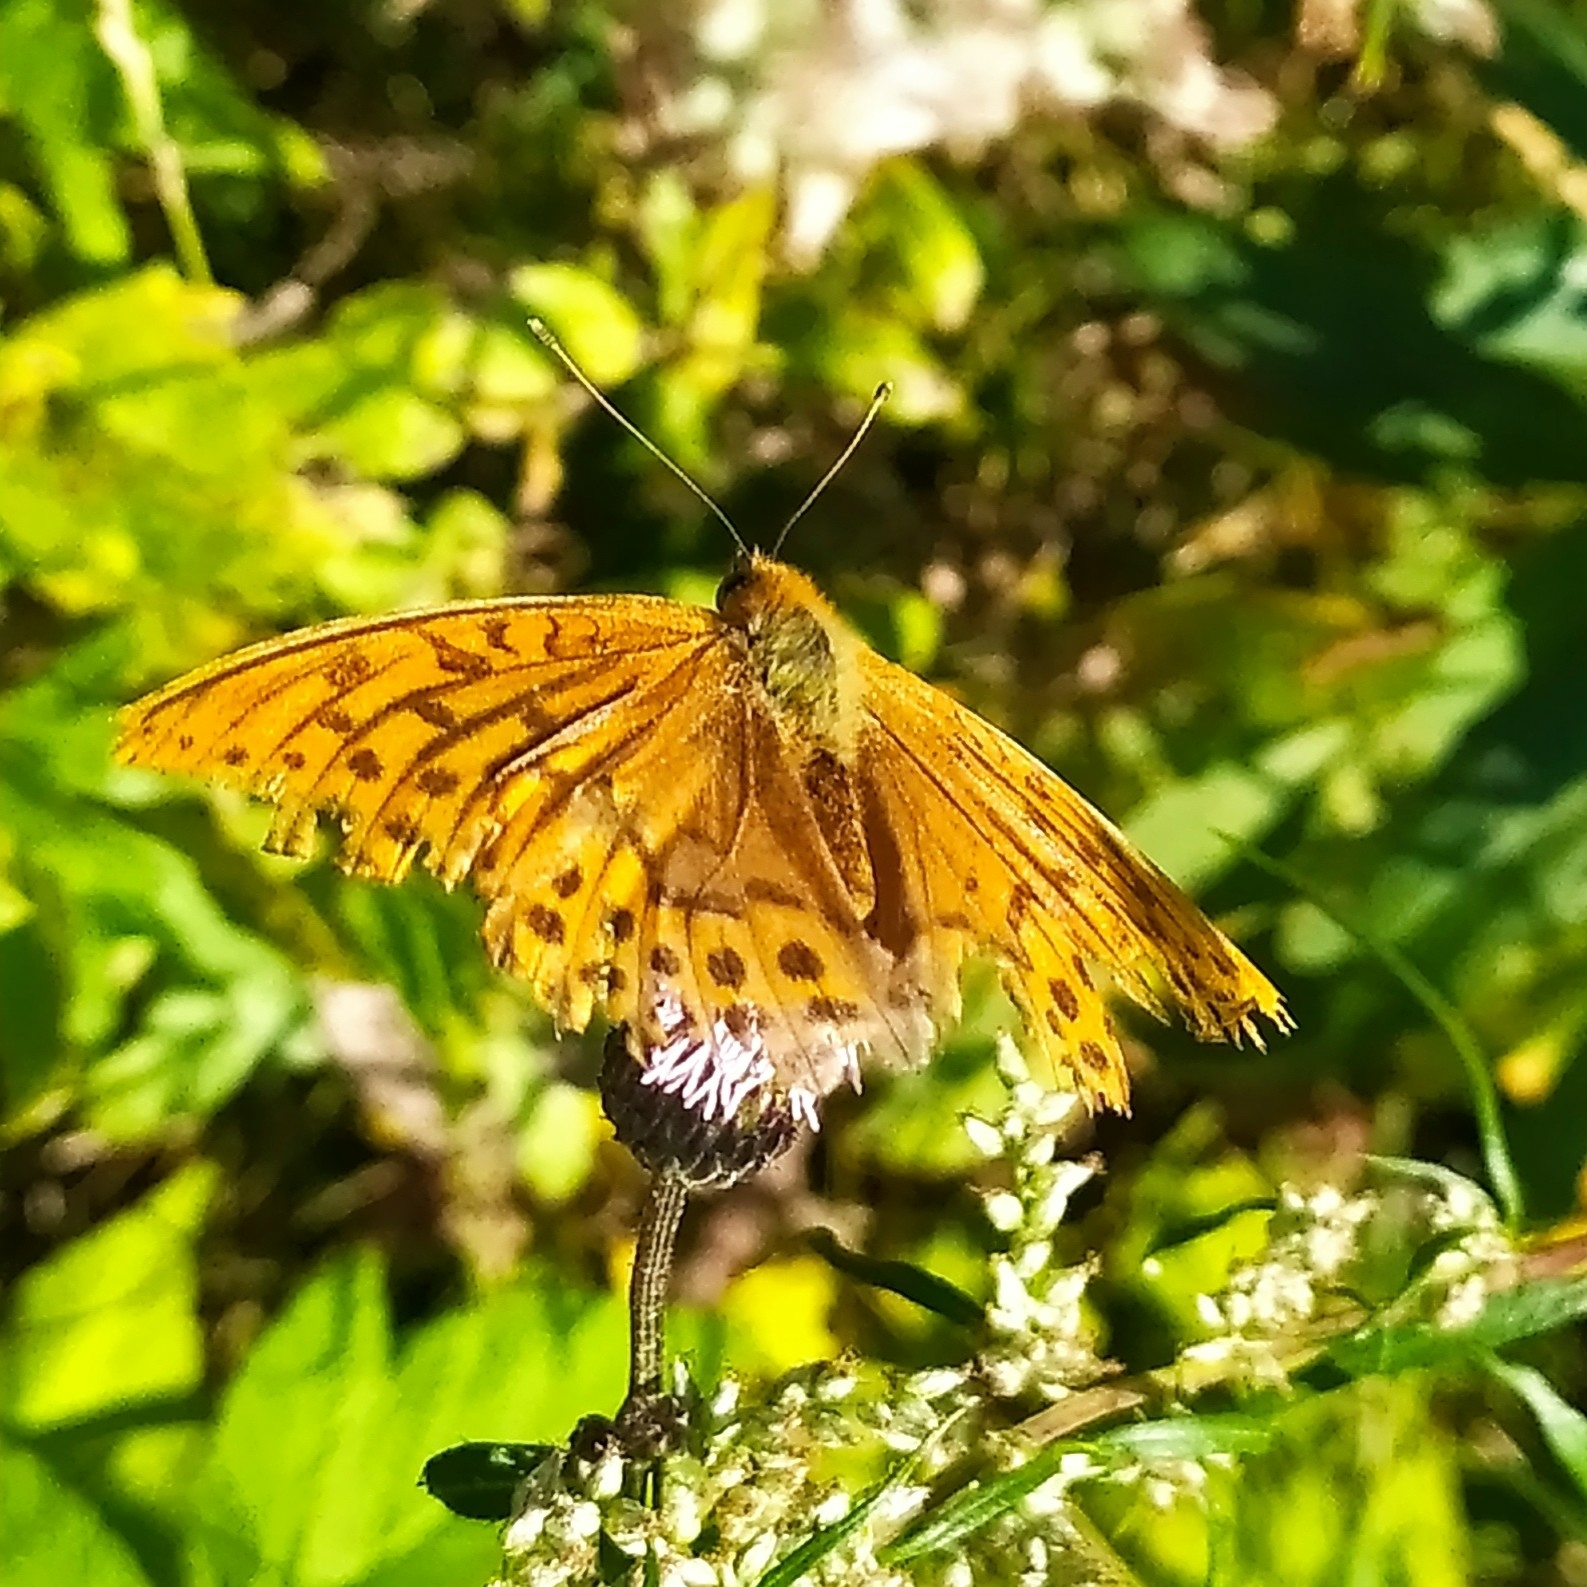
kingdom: Animalia
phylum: Arthropoda
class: Insecta
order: Lepidoptera
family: Nymphalidae
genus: Argynnis
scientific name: Argynnis paphia
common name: Silver-washed fritillary
